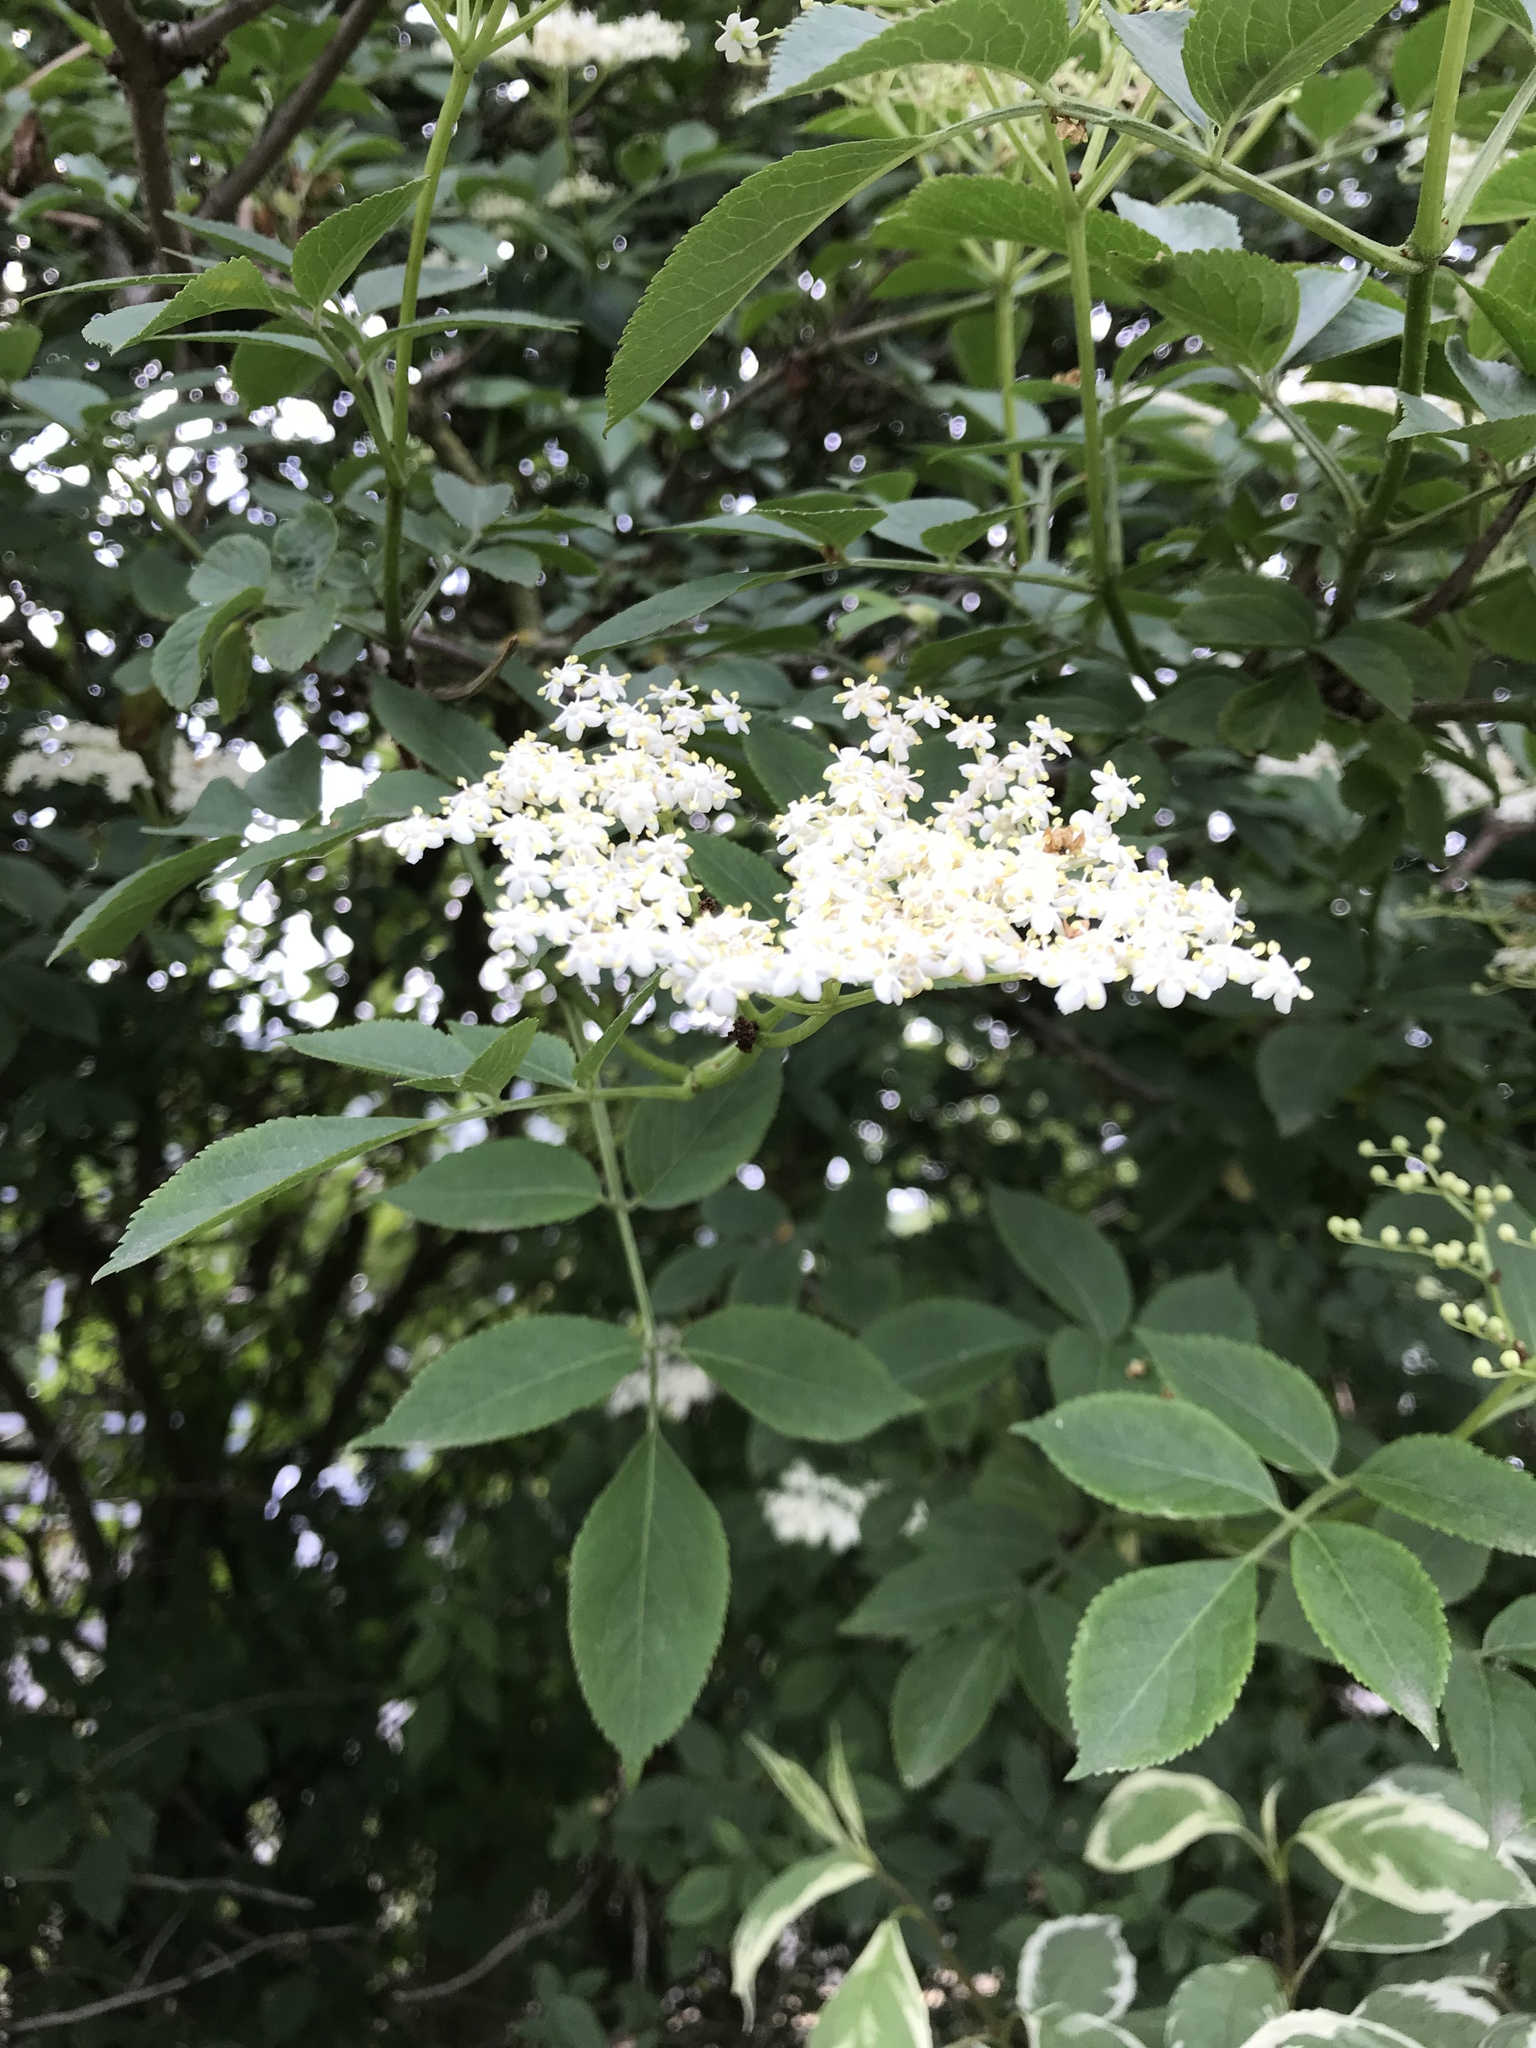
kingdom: Plantae
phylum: Tracheophyta
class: Magnoliopsida
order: Dipsacales
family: Viburnaceae
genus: Sambucus
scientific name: Sambucus nigra
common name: Elder
